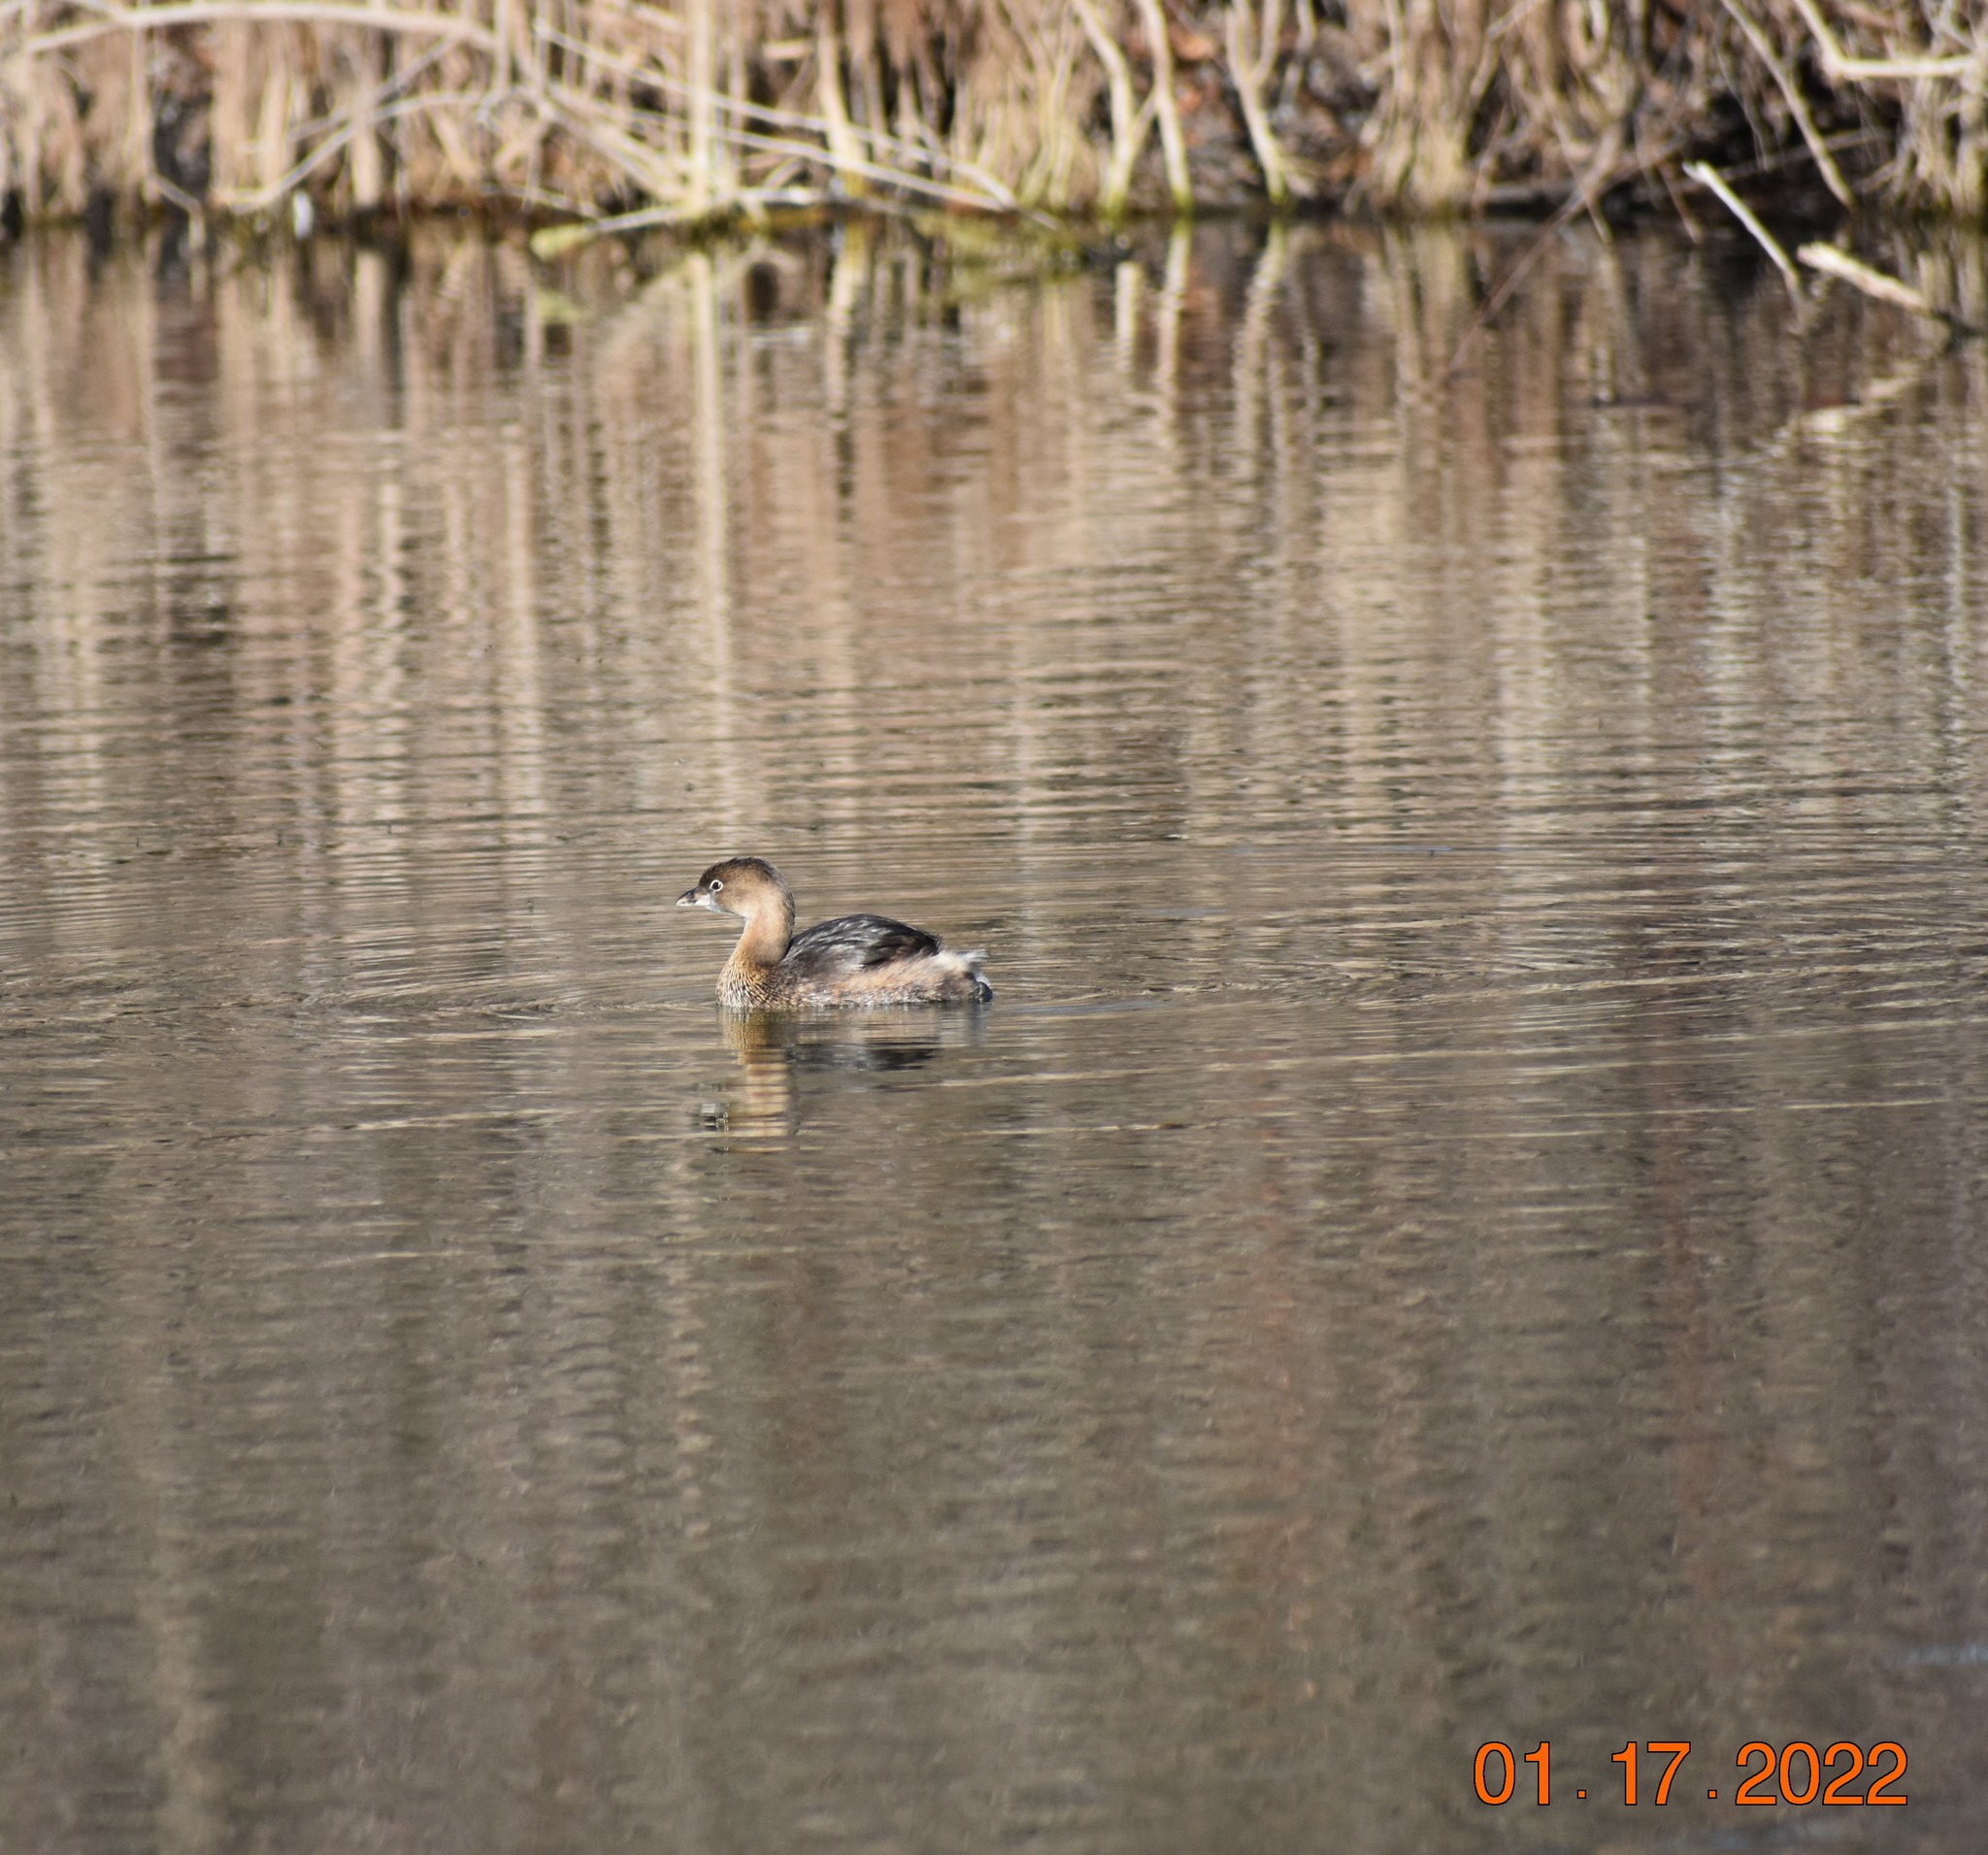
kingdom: Animalia
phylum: Chordata
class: Aves
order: Podicipediformes
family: Podicipedidae
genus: Podilymbus
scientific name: Podilymbus podiceps
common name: Pied-billed grebe
